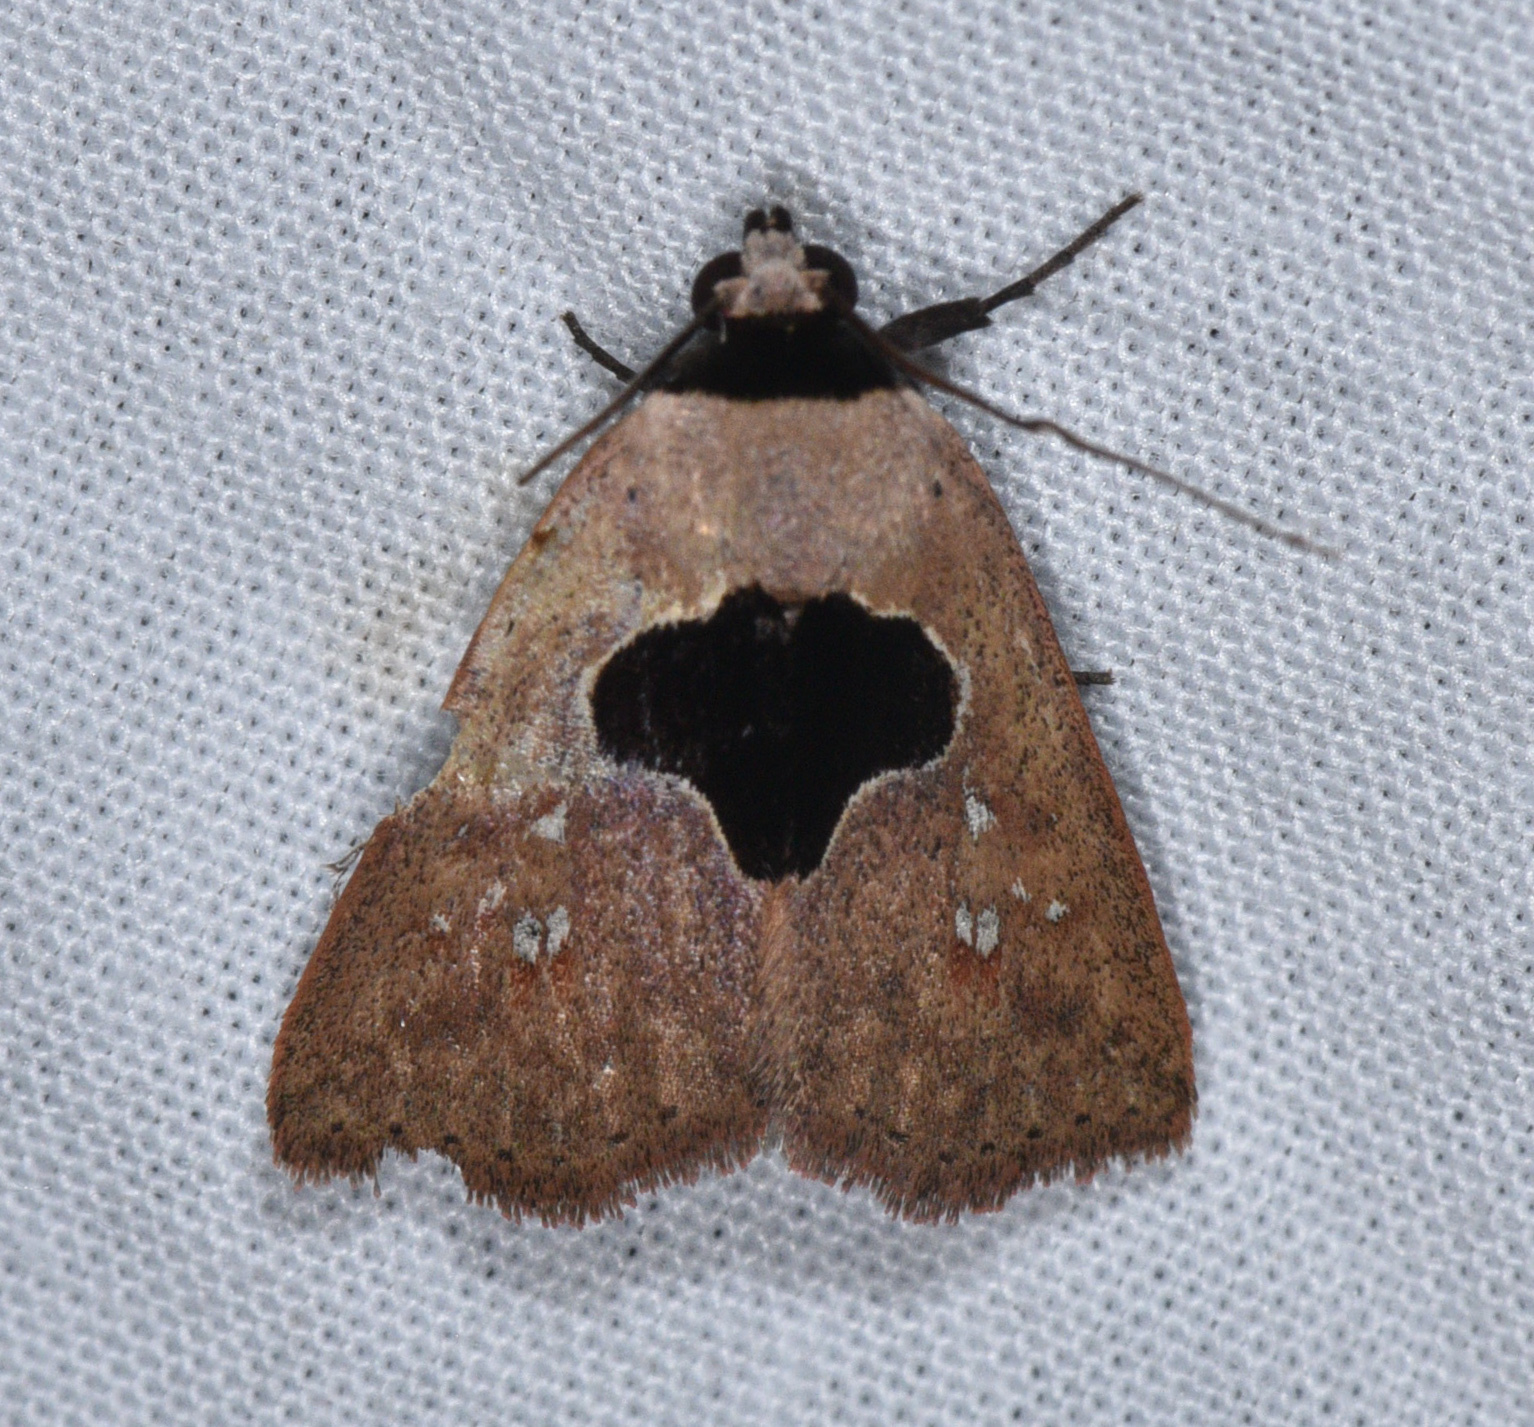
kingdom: Animalia
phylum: Arthropoda
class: Insecta
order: Lepidoptera
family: Erebidae
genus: Baniana
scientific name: Baniana veluta
